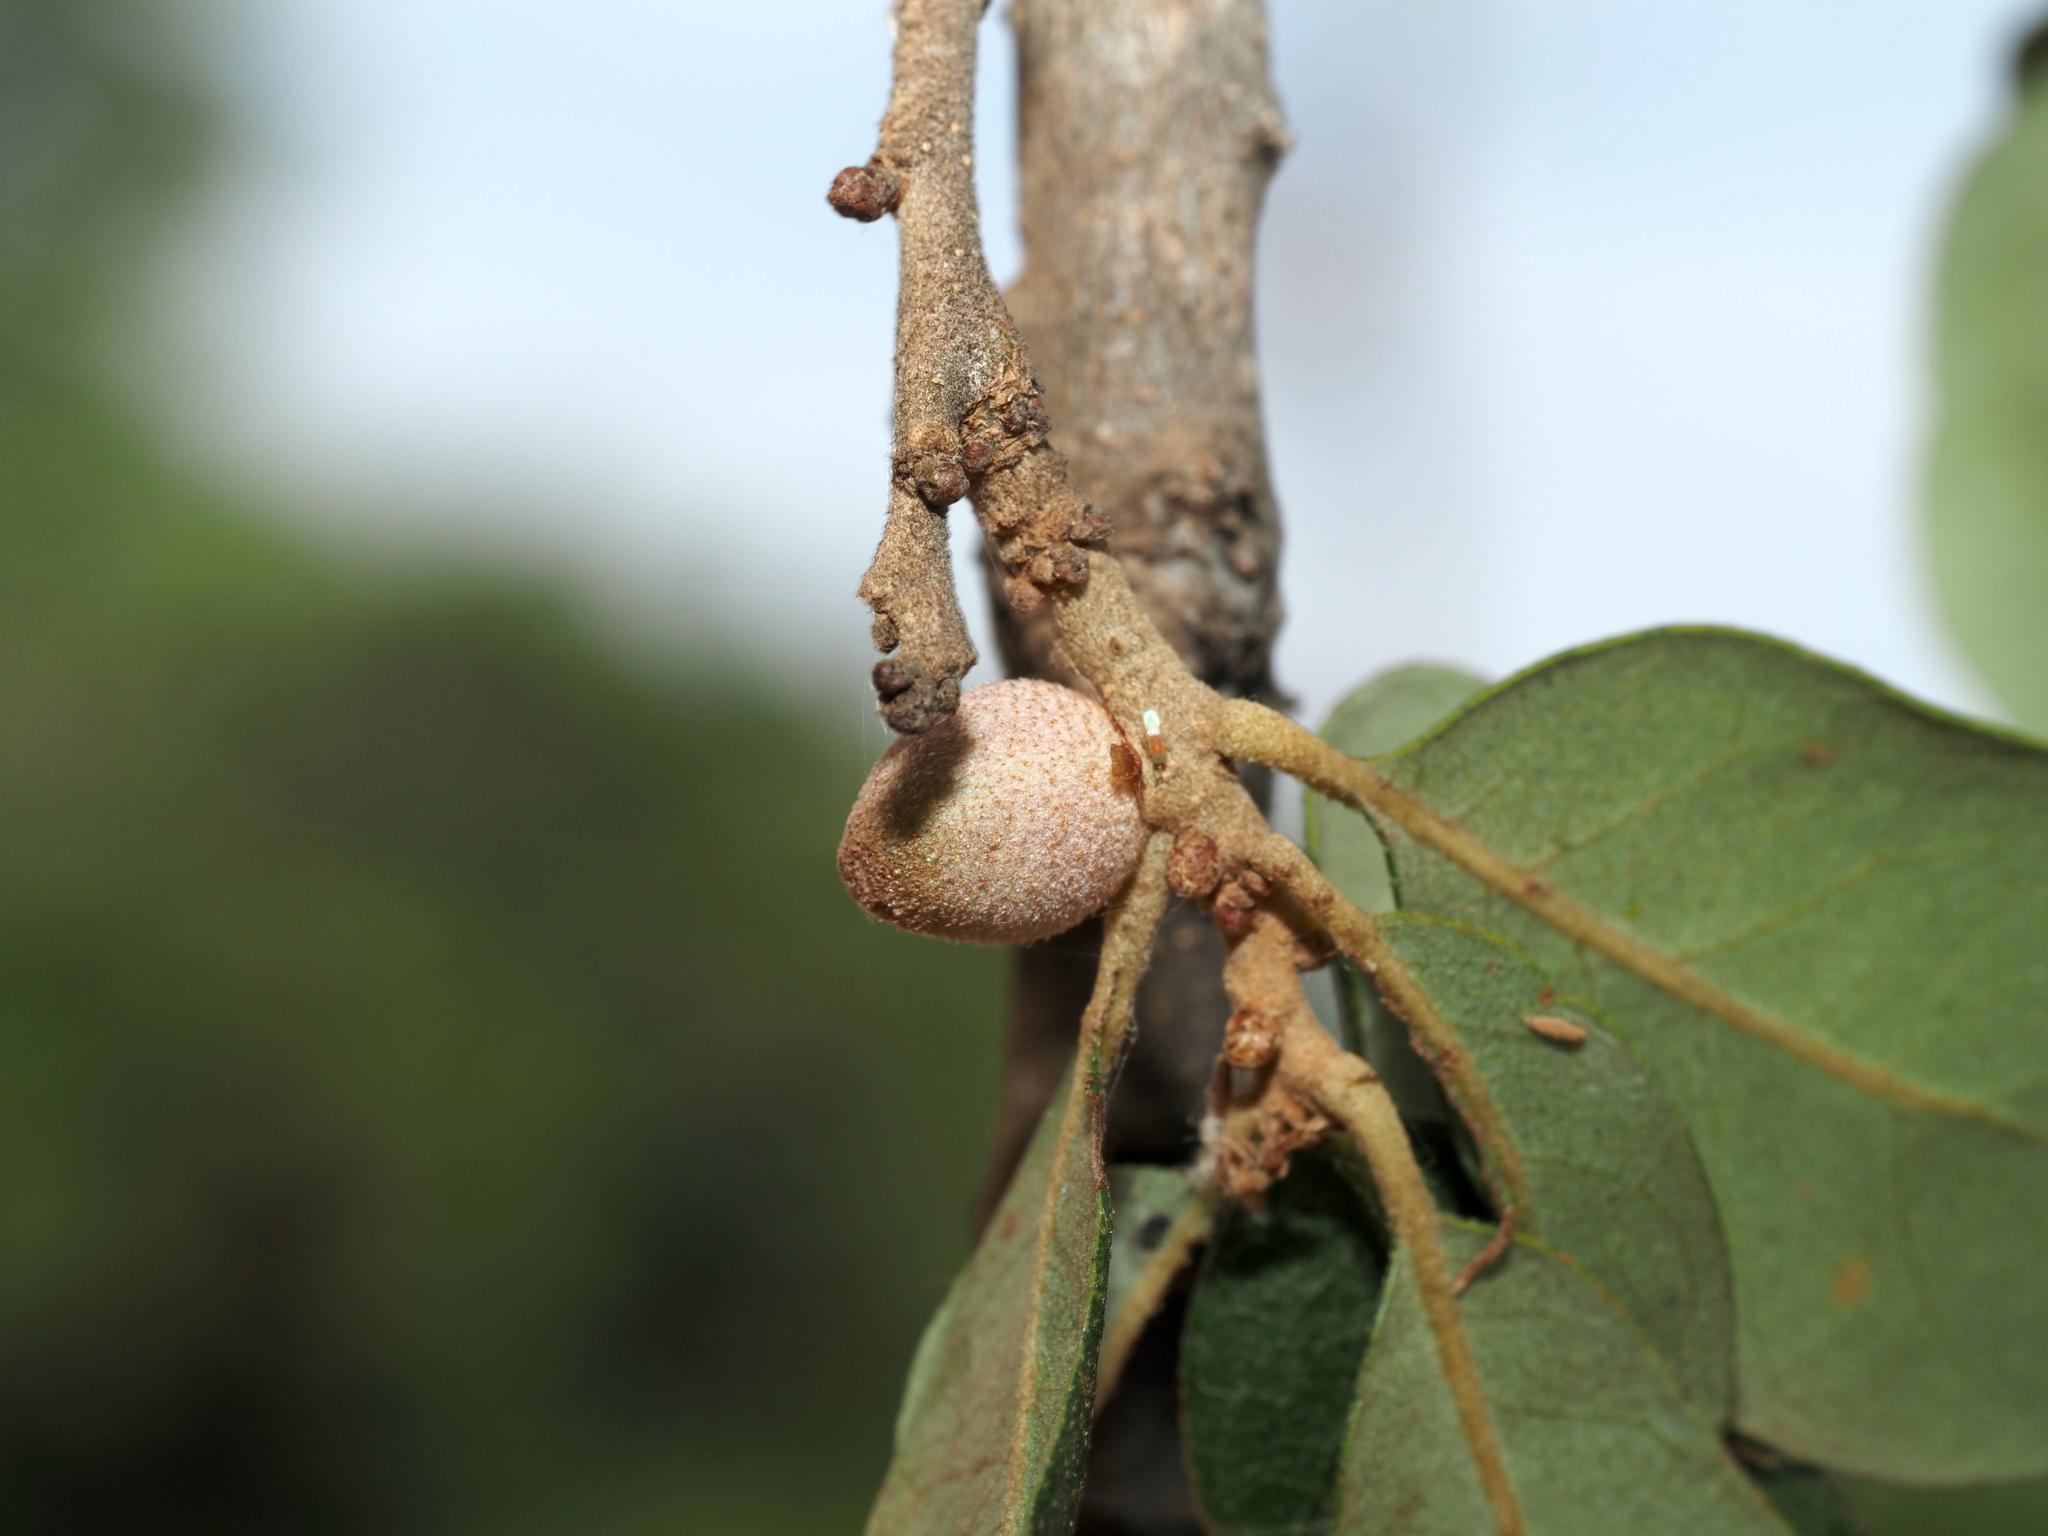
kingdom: Animalia
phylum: Arthropoda
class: Insecta
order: Hymenoptera
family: Cynipidae
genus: Disholcaspis
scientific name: Disholcaspis
